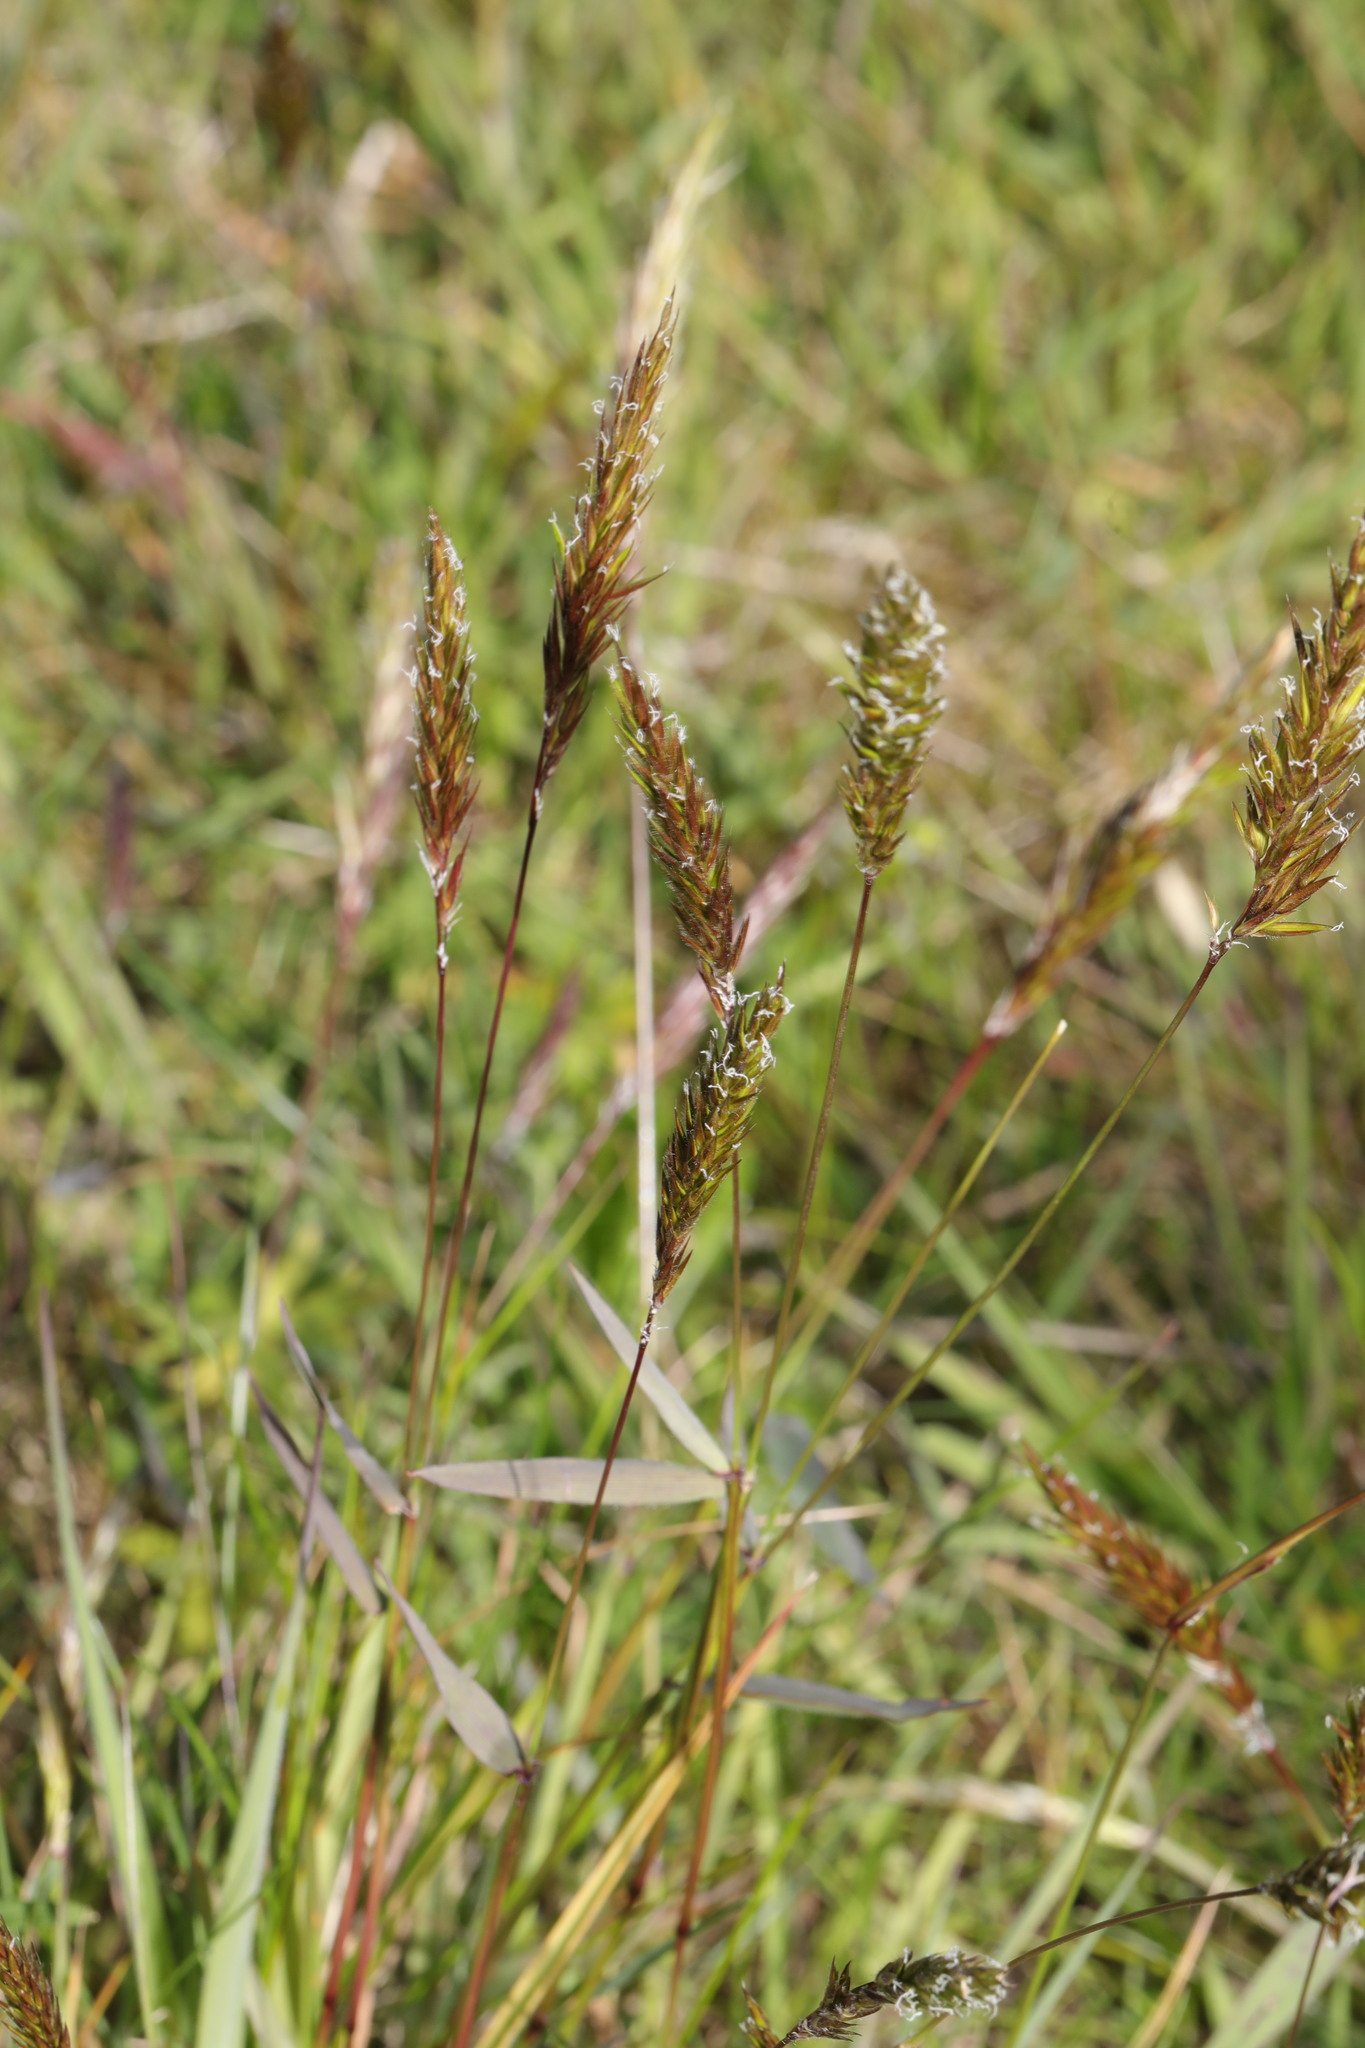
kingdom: Plantae
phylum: Tracheophyta
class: Liliopsida
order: Poales
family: Poaceae
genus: Anthoxanthum
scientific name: Anthoxanthum odoratum
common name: Sweet vernalgrass
